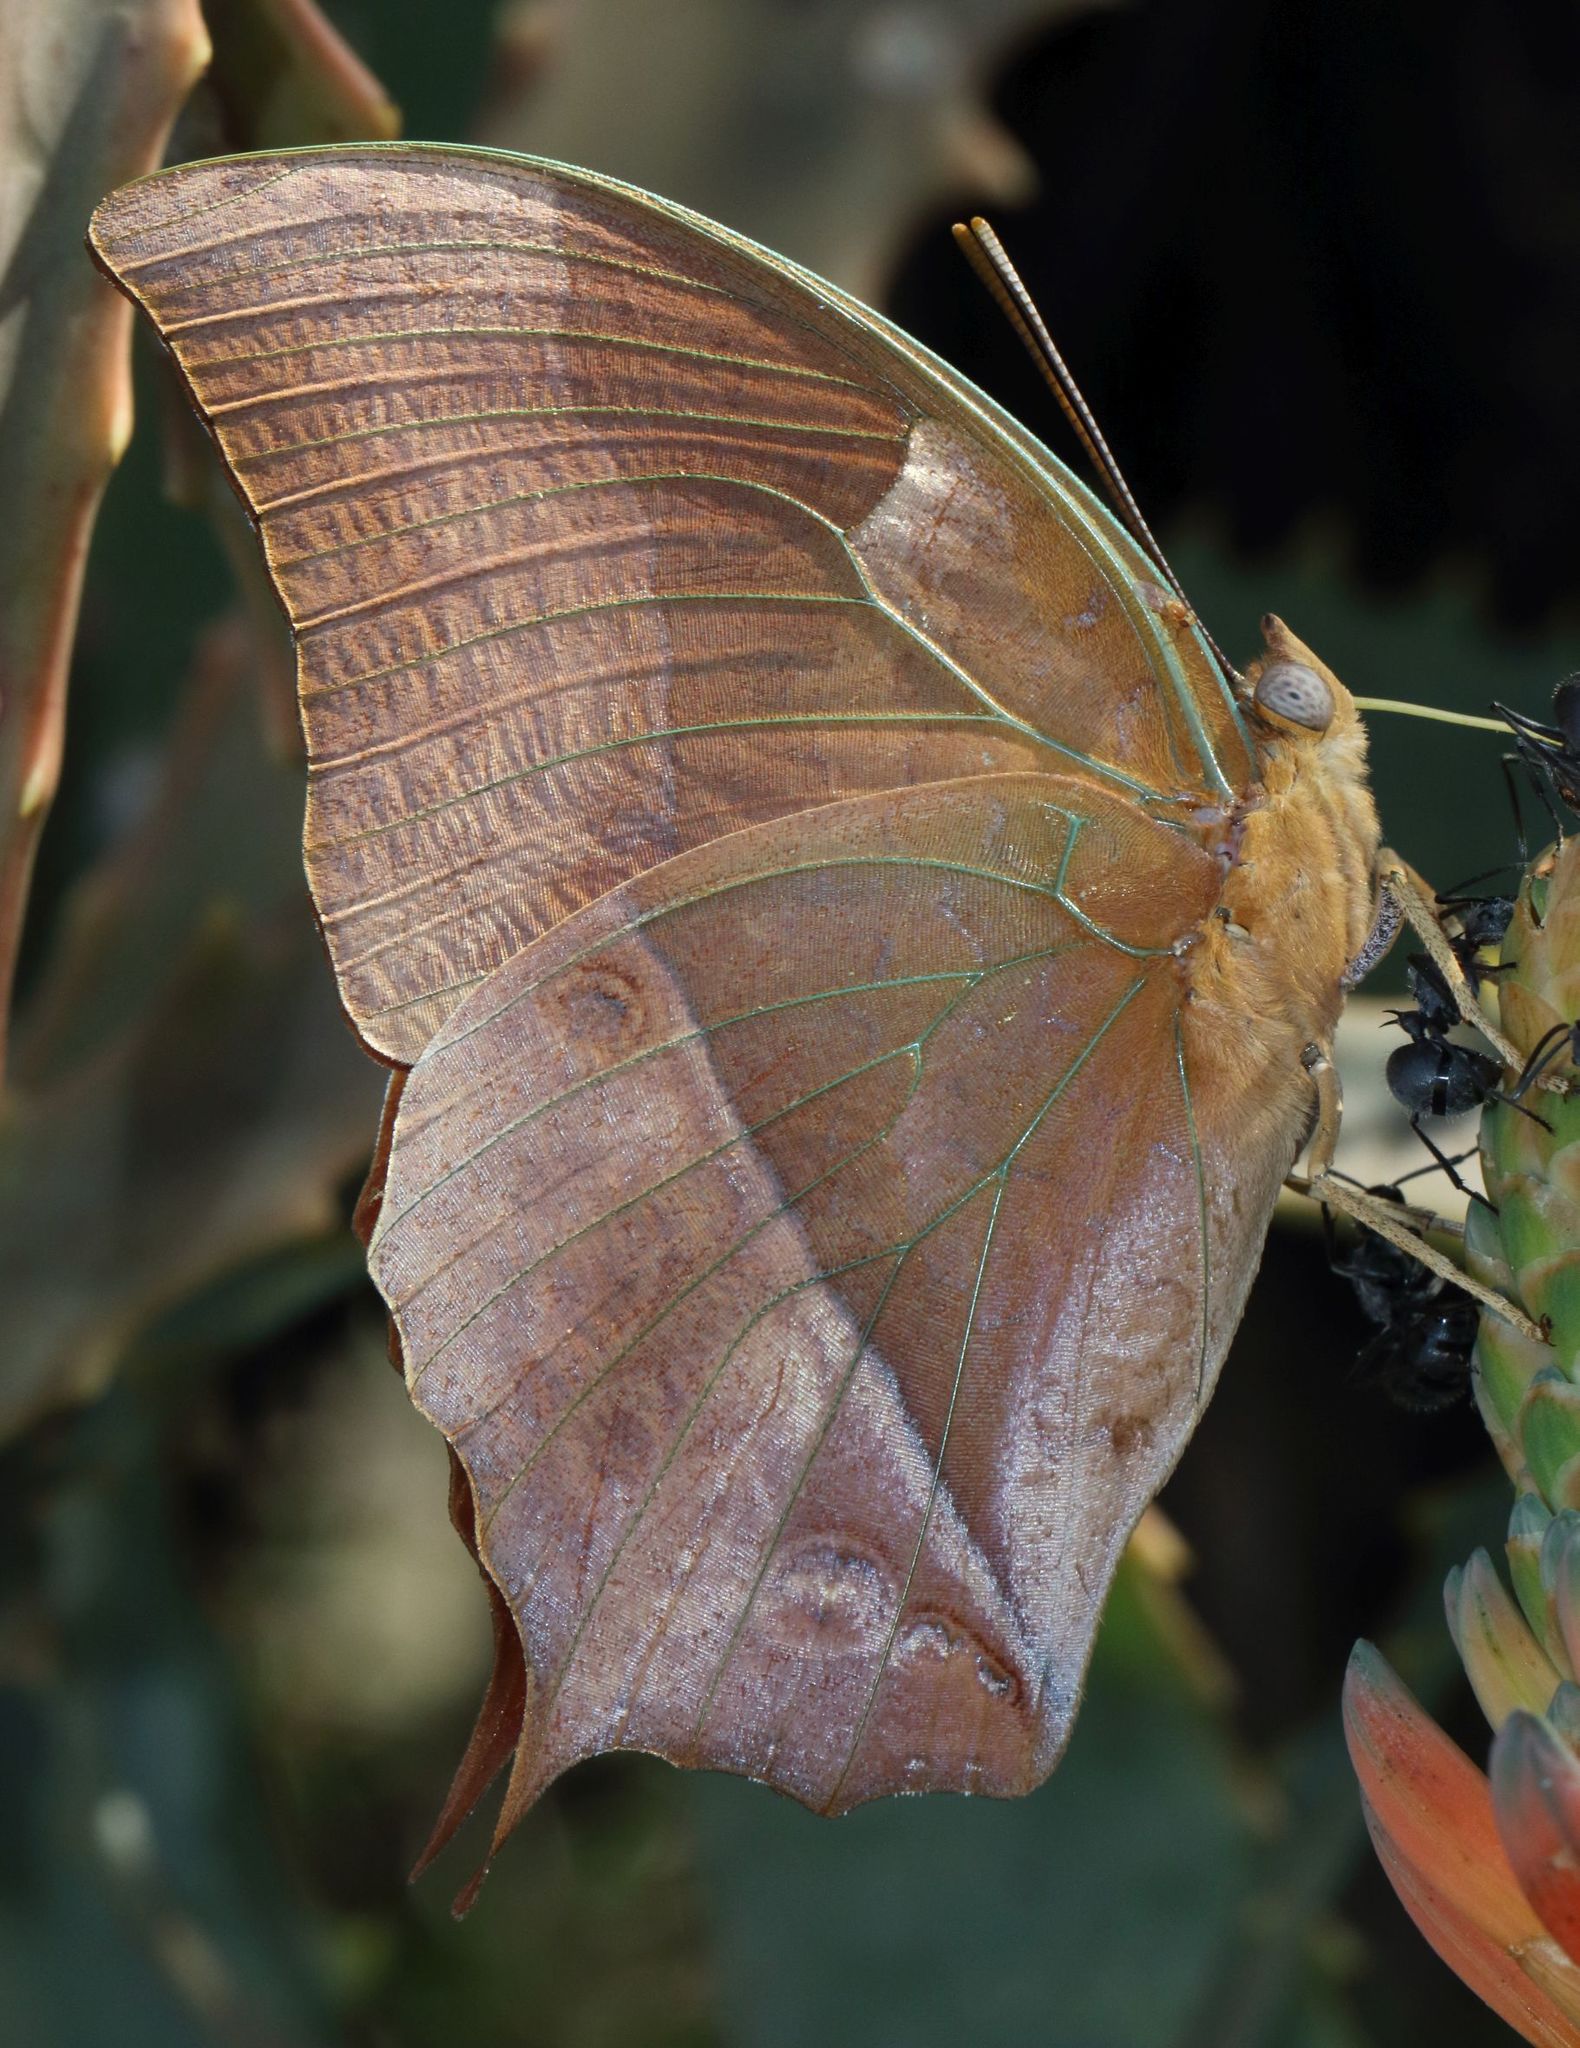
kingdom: Animalia
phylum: Arthropoda
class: Insecta
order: Lepidoptera
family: Nymphalidae
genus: Charaxes
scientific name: Charaxes varanes
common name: Common pearl charaxes
